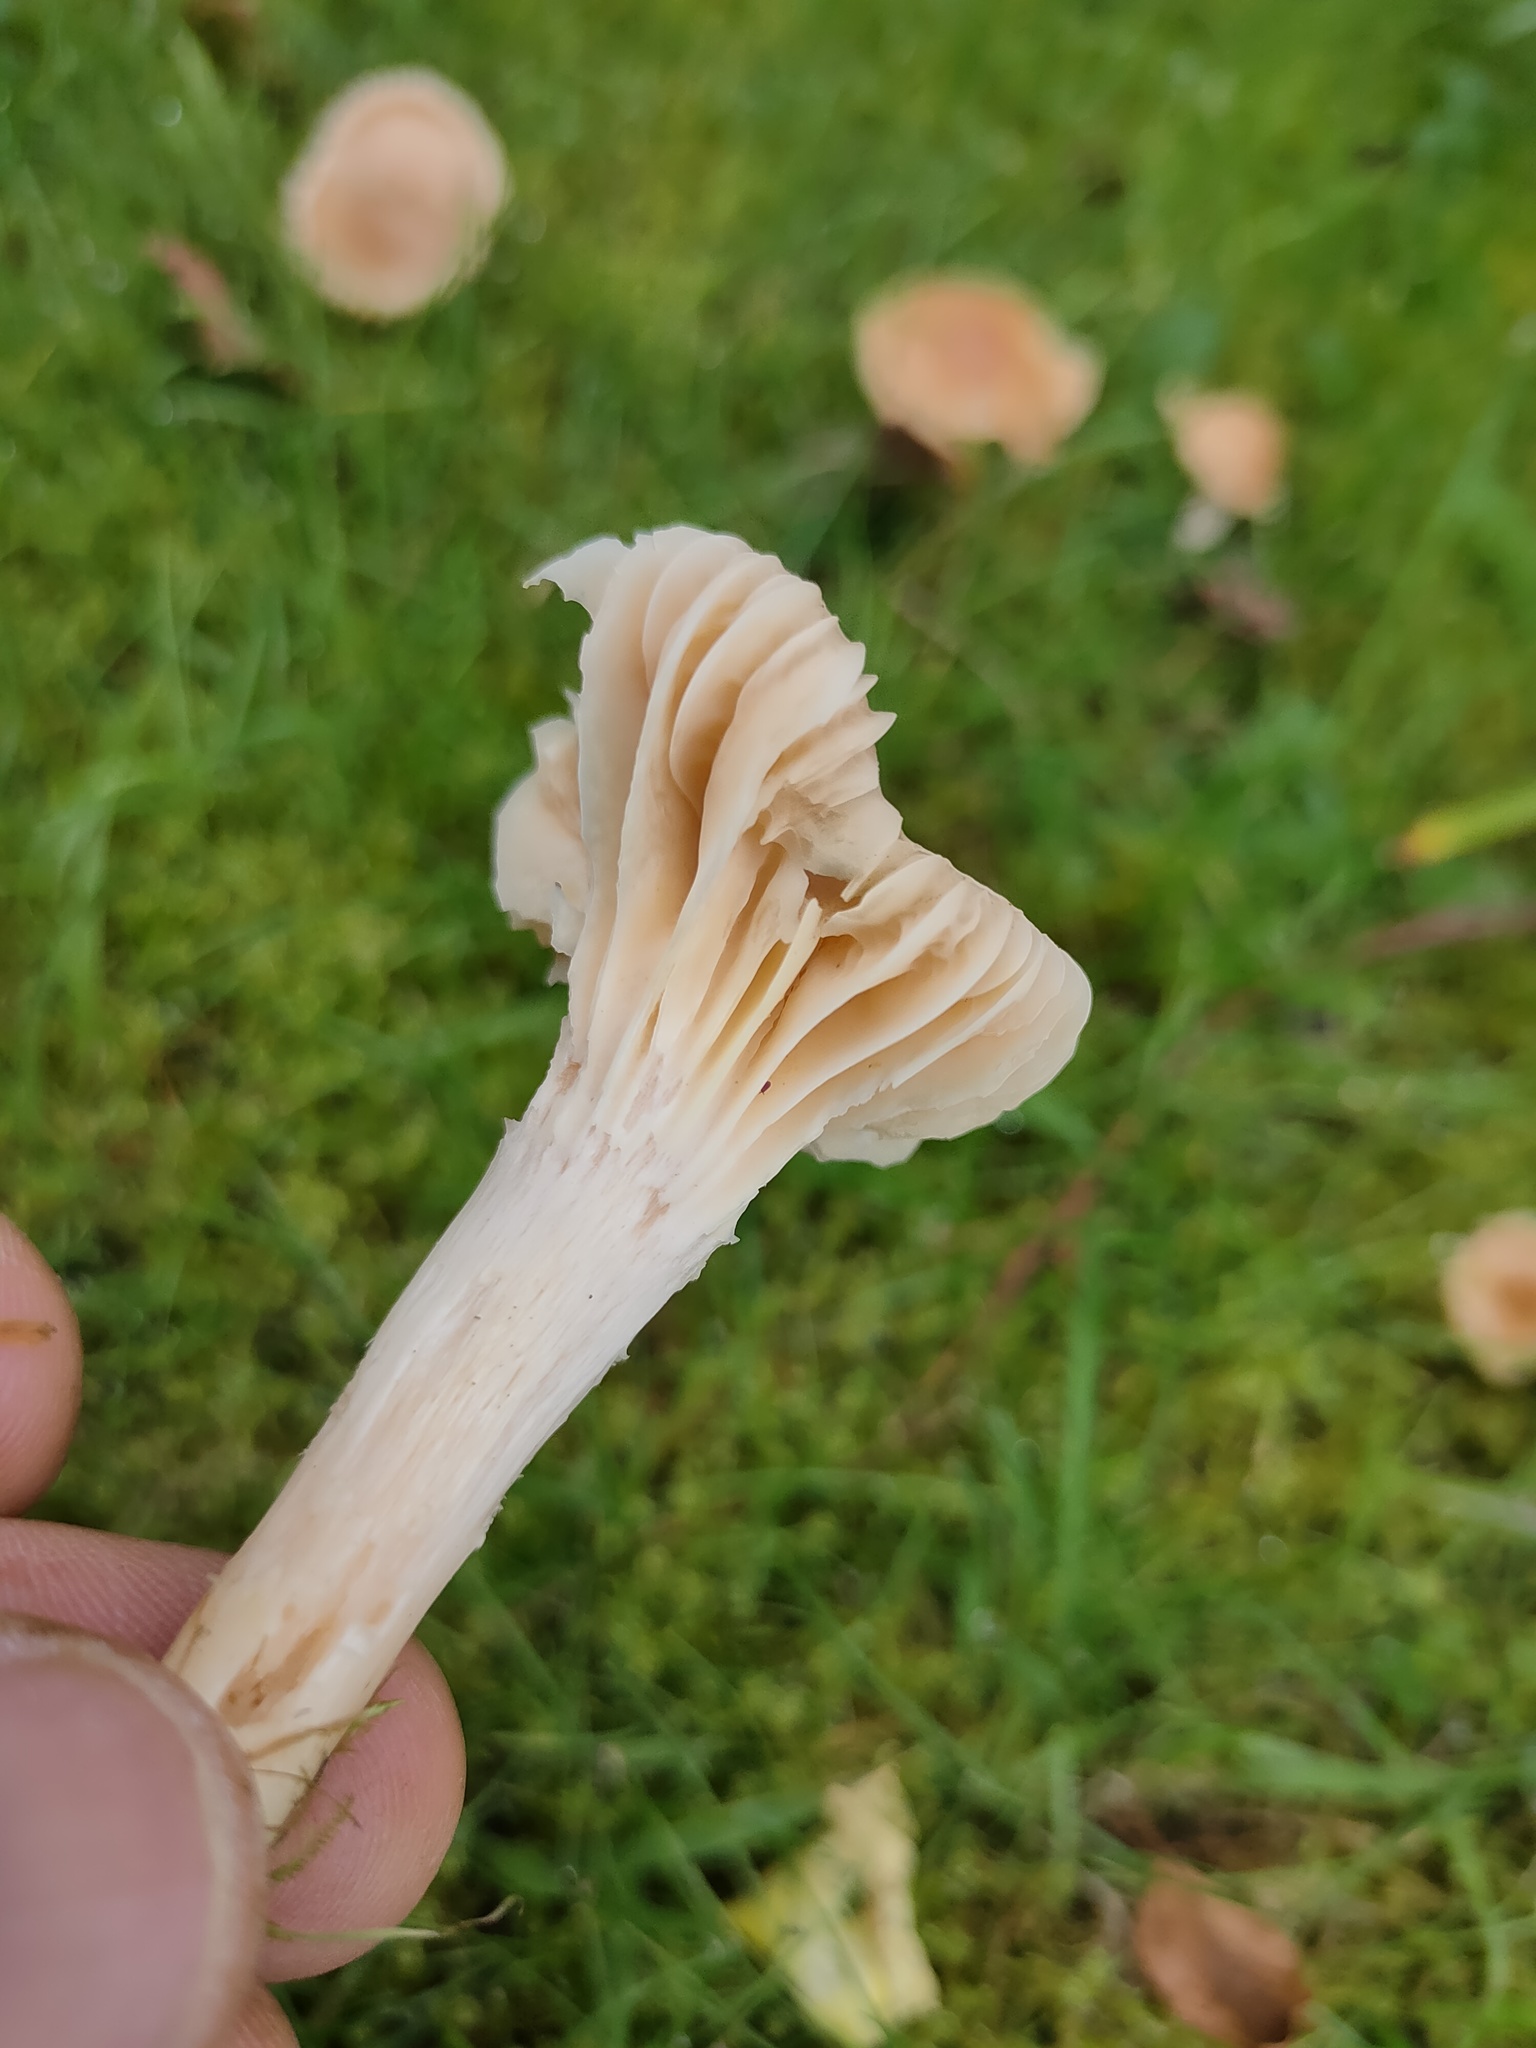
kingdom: Fungi
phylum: Basidiomycota
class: Agaricomycetes
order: Agaricales
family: Hygrophoraceae
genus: Cuphophyllus
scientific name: Cuphophyllus pratensis
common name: Meadow waxcap
